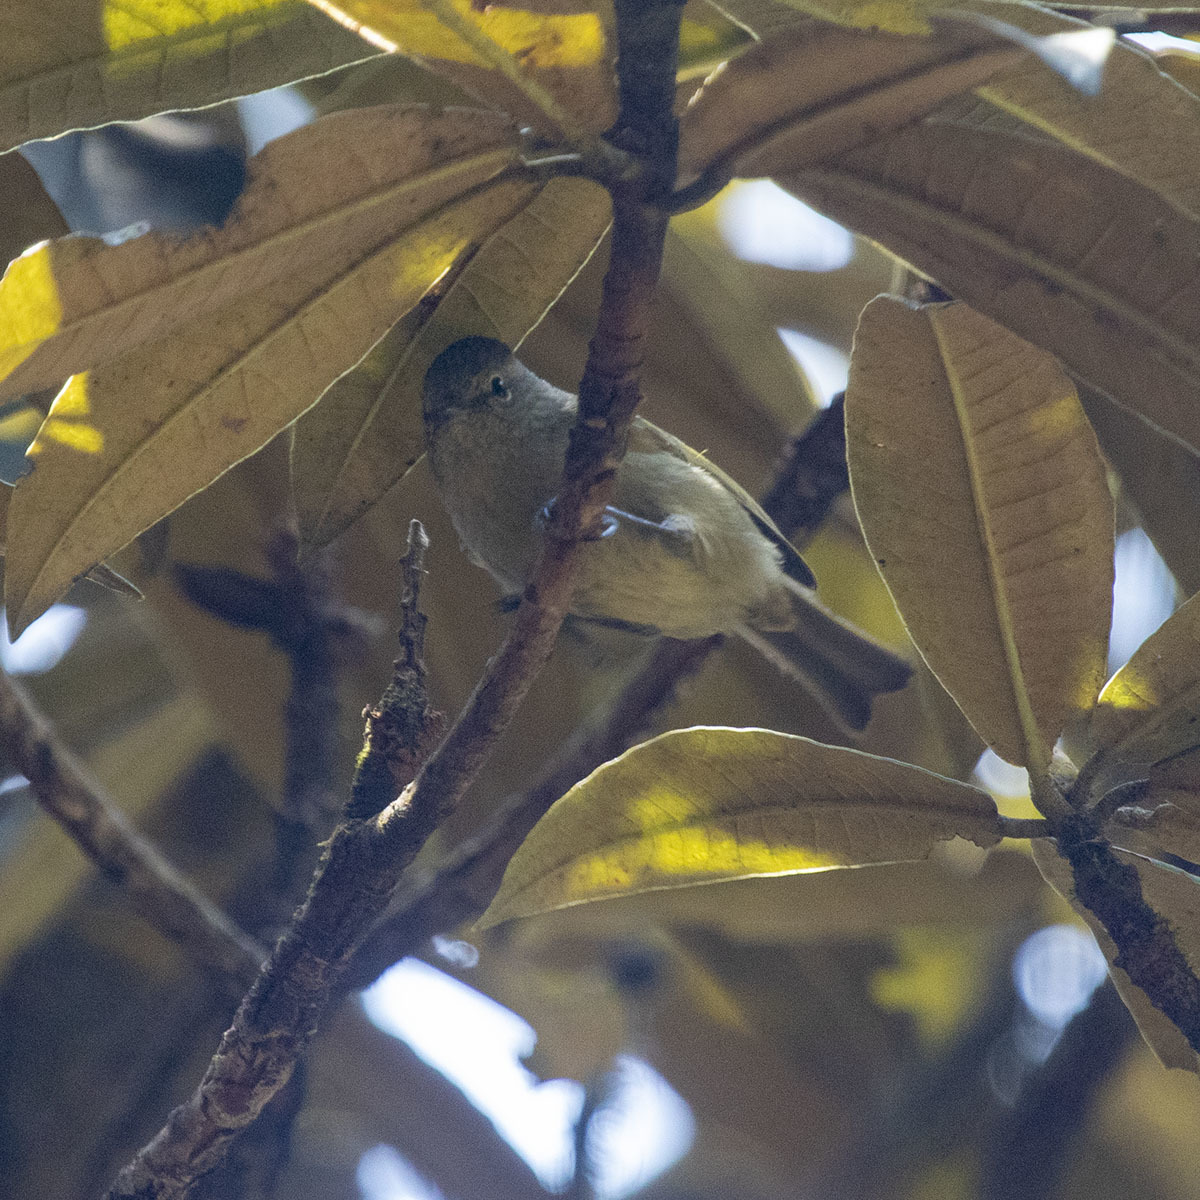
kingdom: Animalia
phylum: Chordata
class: Aves
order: Passeriformes
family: Paridae
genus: Sylviparus
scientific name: Sylviparus modestus
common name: Yellow-browed tit
